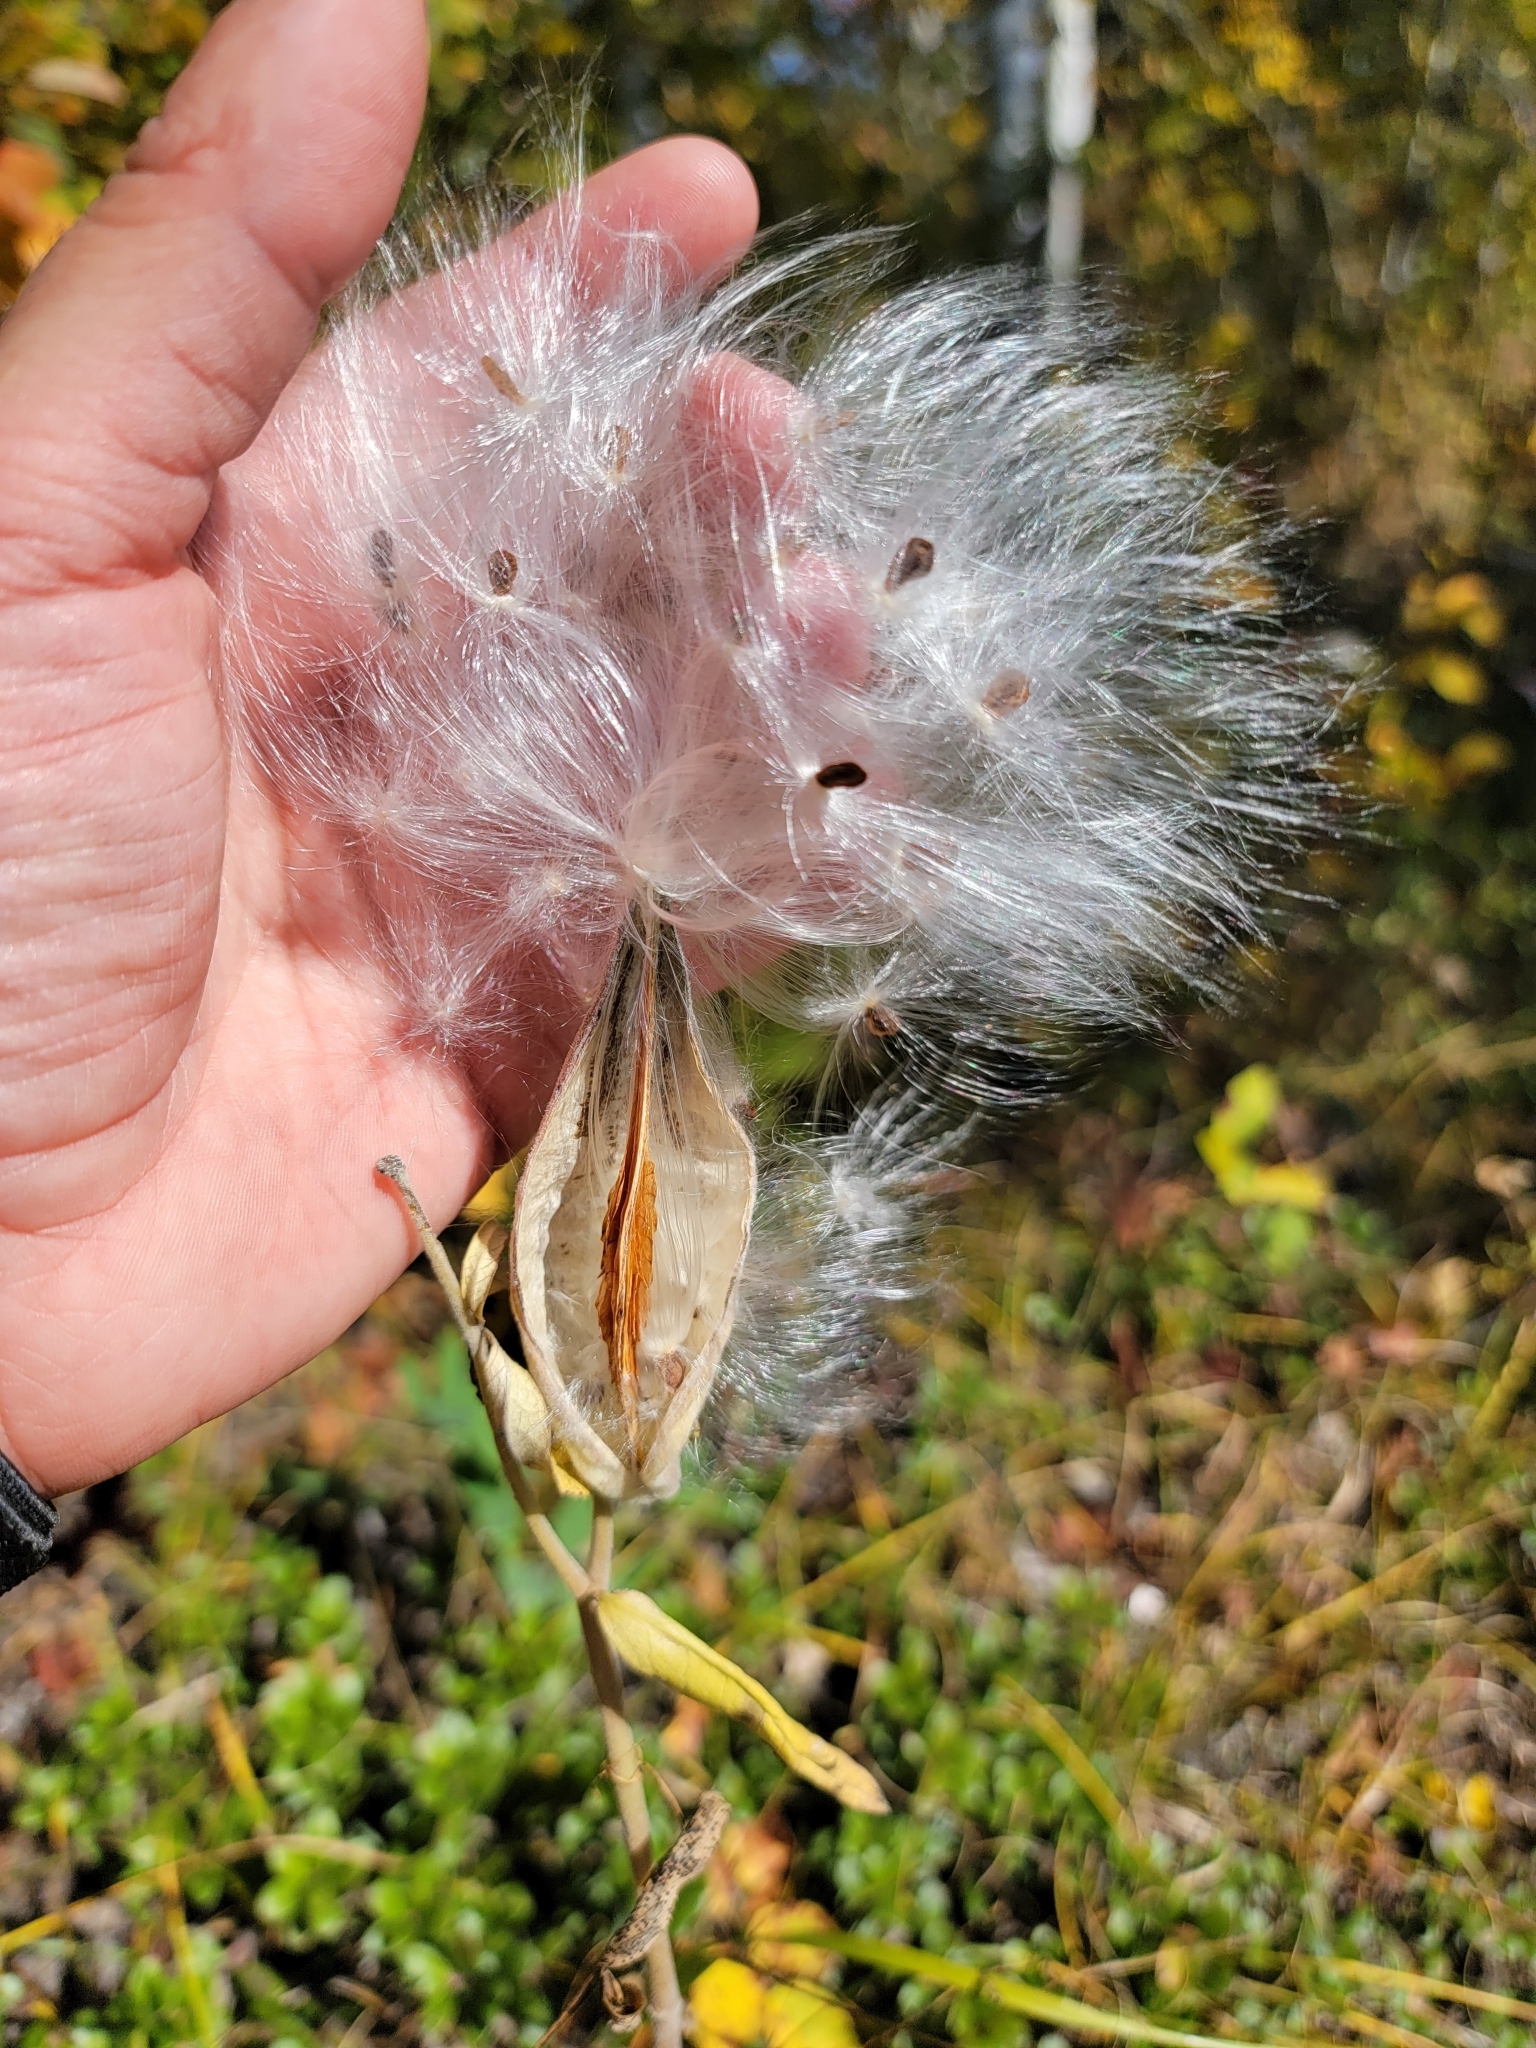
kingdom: Plantae
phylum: Tracheophyta
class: Magnoliopsida
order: Gentianales
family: Apocynaceae
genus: Asclepias
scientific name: Asclepias ovalifolia
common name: Dwarf milkweed
